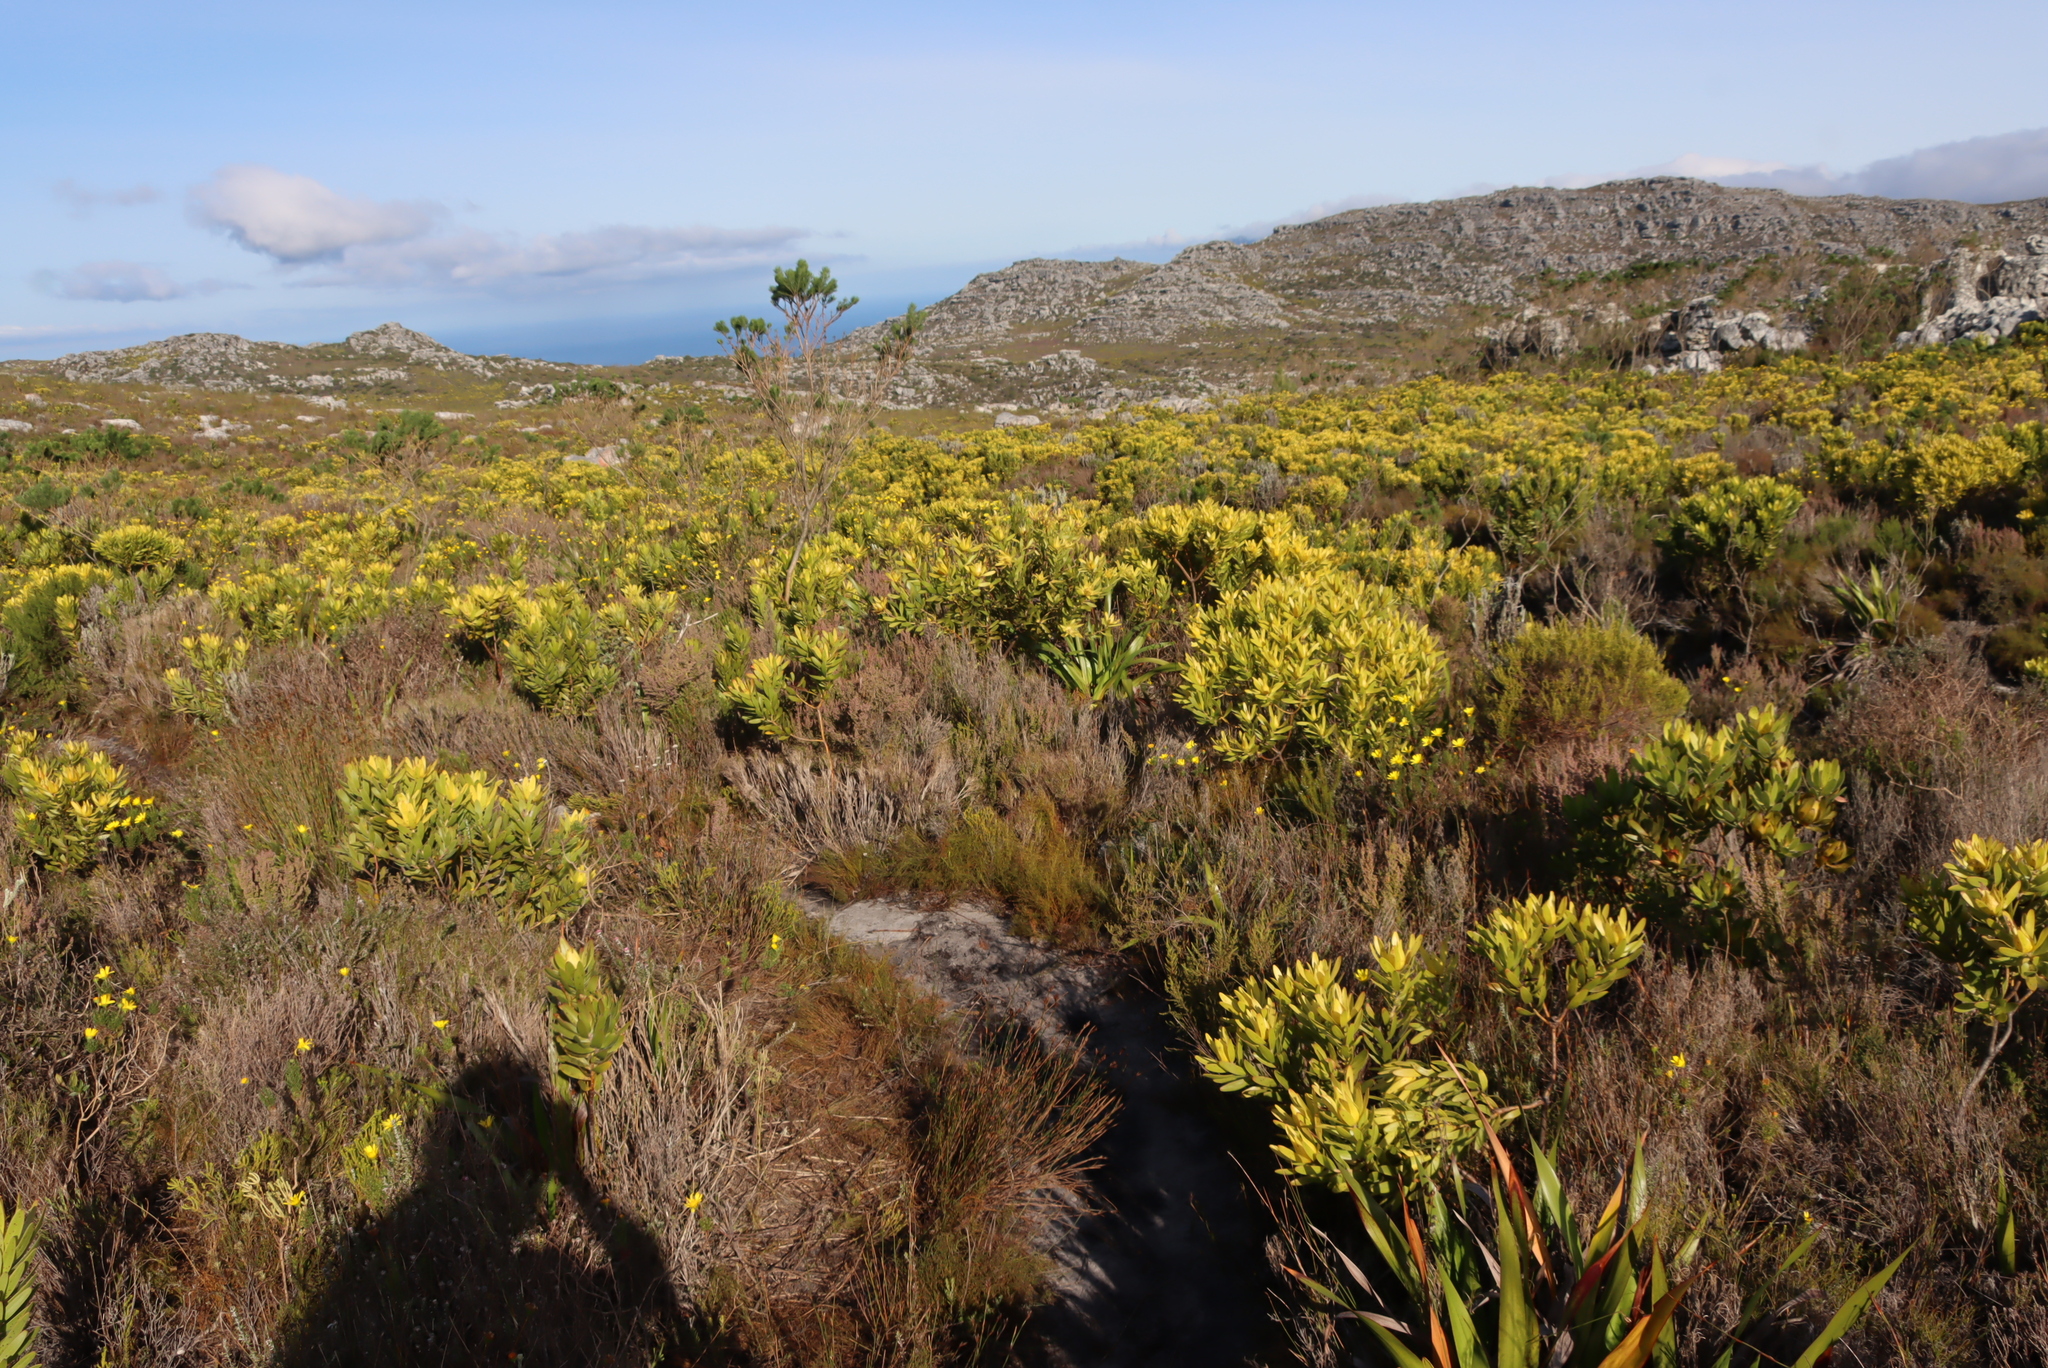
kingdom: Plantae
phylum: Tracheophyta
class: Magnoliopsida
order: Proteales
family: Proteaceae
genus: Leucadendron
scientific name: Leucadendron laureolum
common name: Golden sunshinebush
